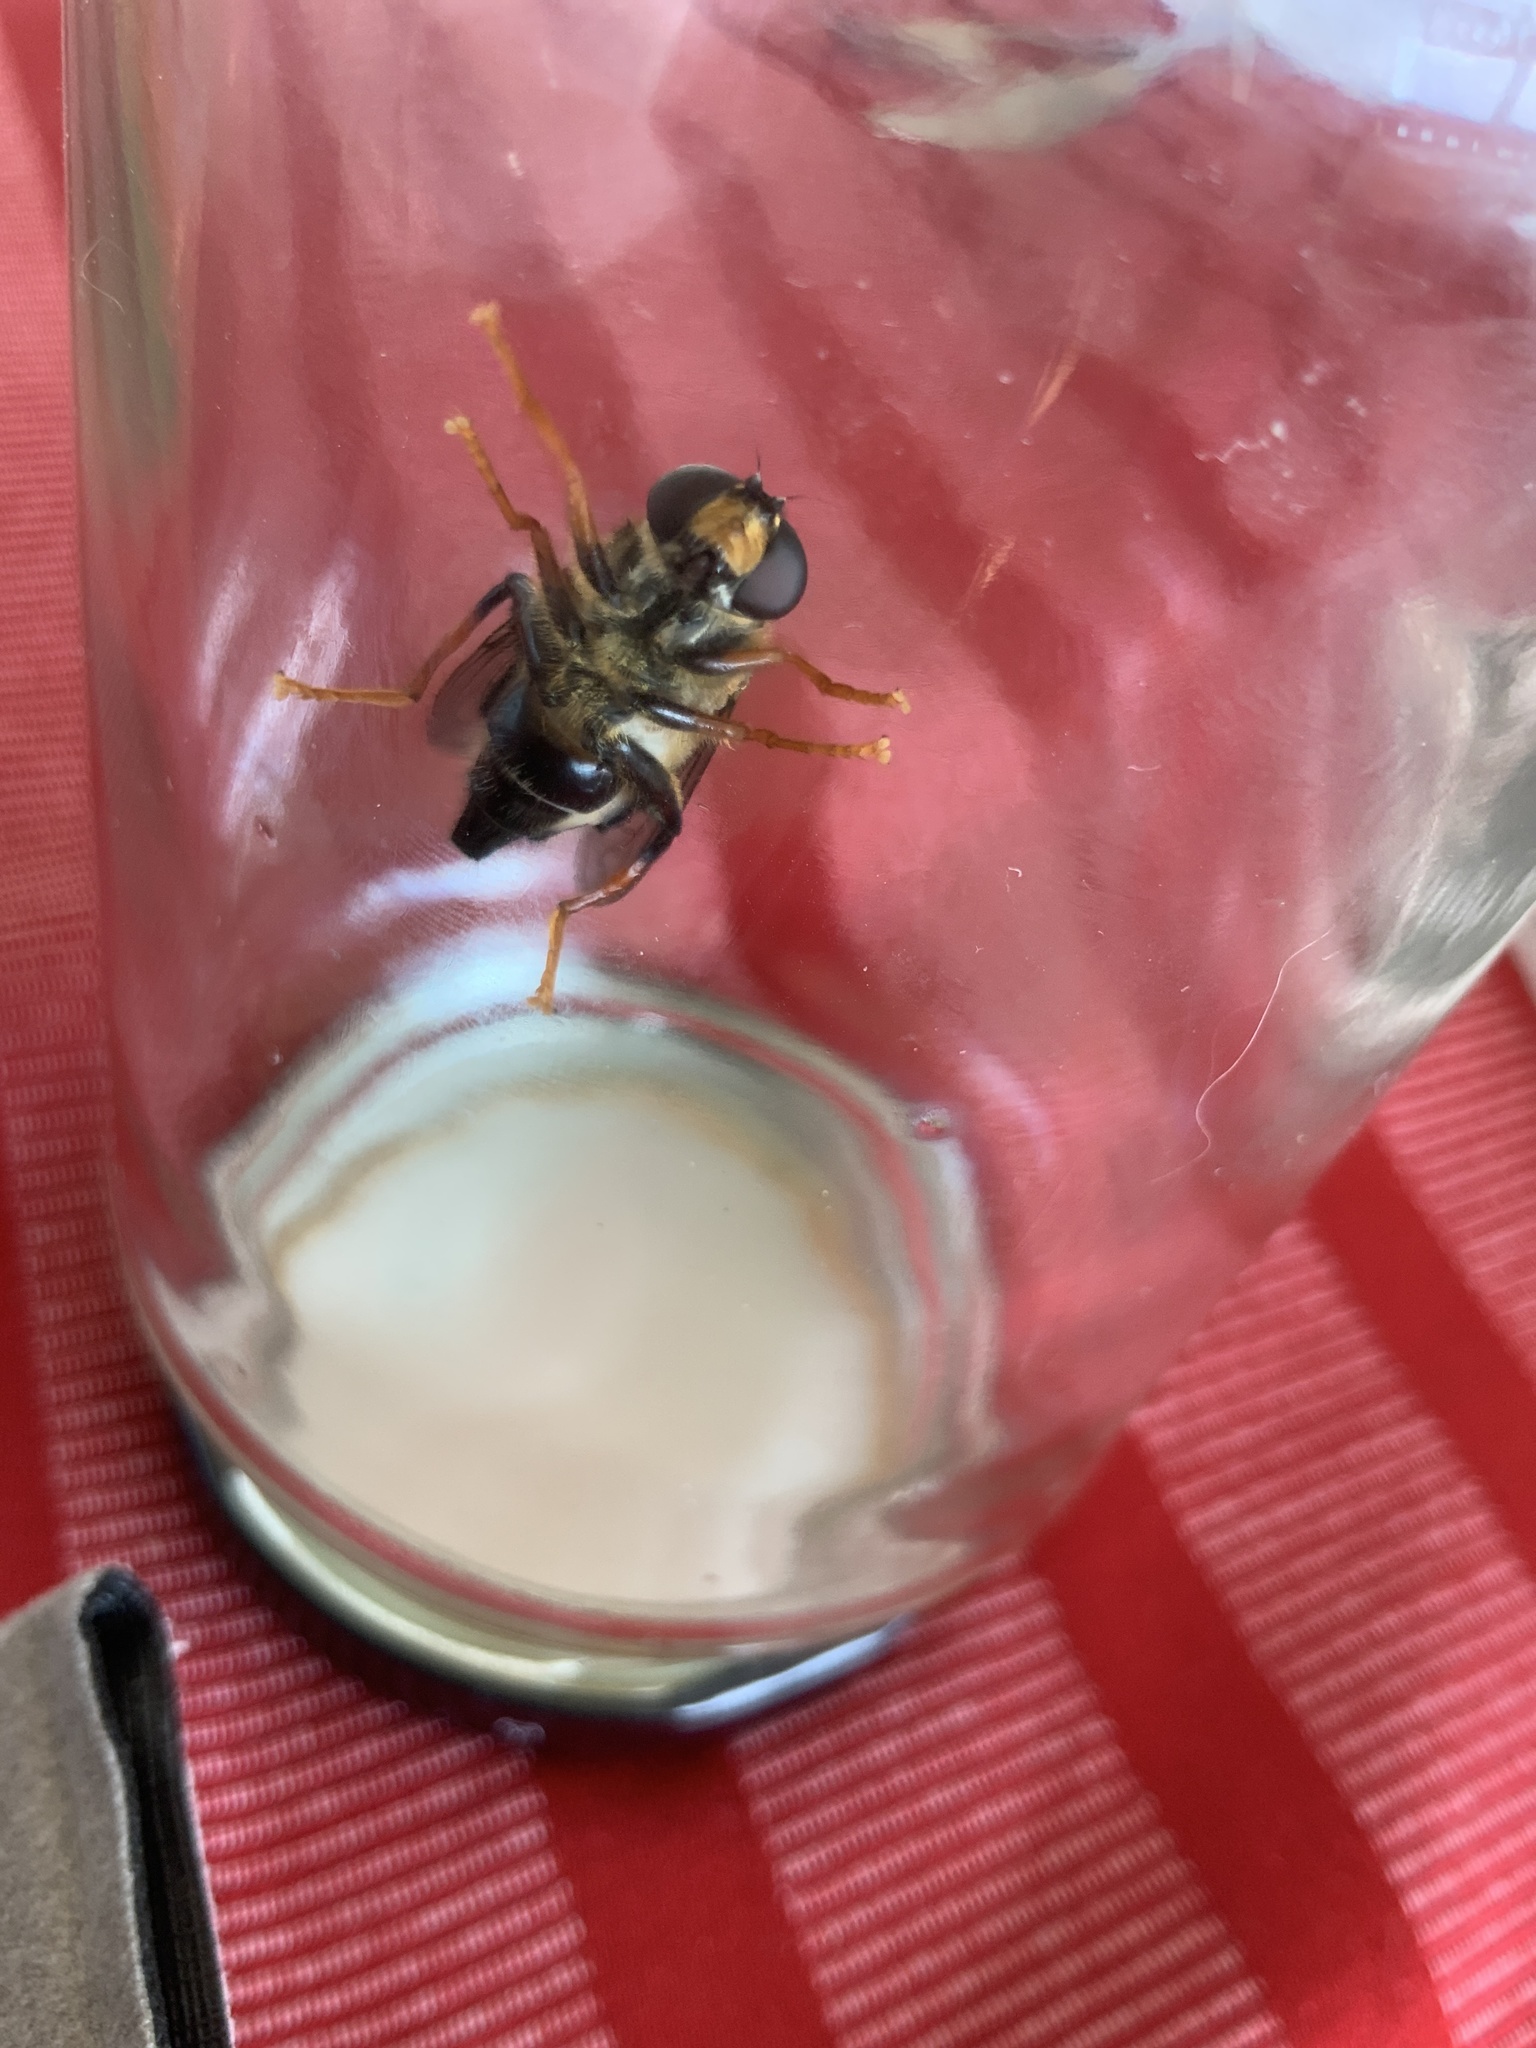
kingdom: Animalia
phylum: Arthropoda
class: Insecta
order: Diptera
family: Syrphidae
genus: Helophilus
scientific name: Helophilus seelandicus
